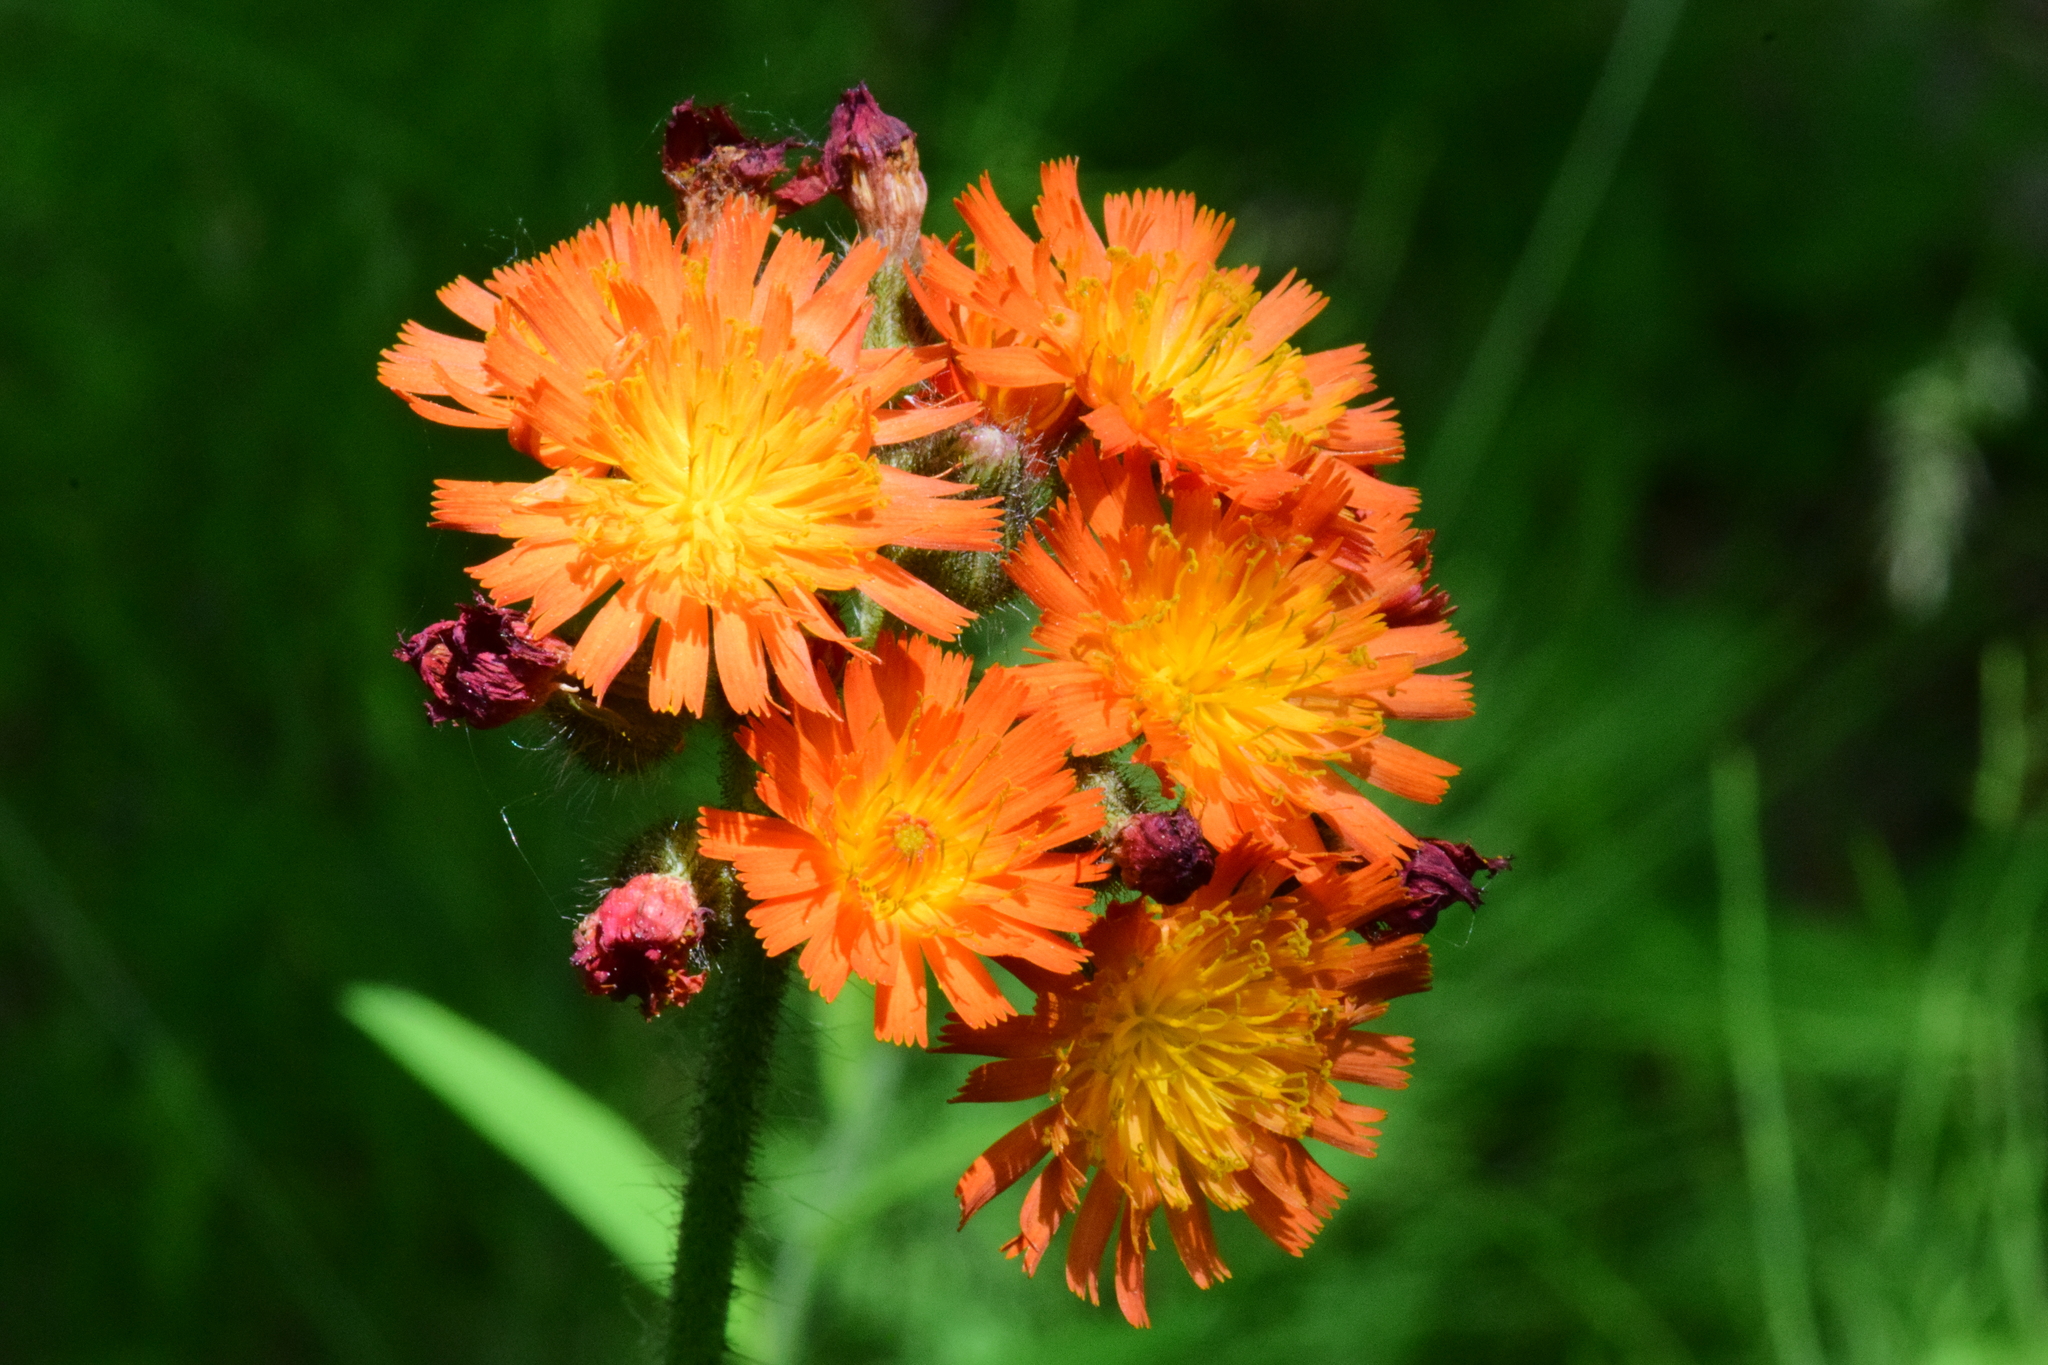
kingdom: Plantae
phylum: Tracheophyta
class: Magnoliopsida
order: Asterales
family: Asteraceae
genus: Pilosella
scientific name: Pilosella aurantiaca
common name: Fox-and-cubs
